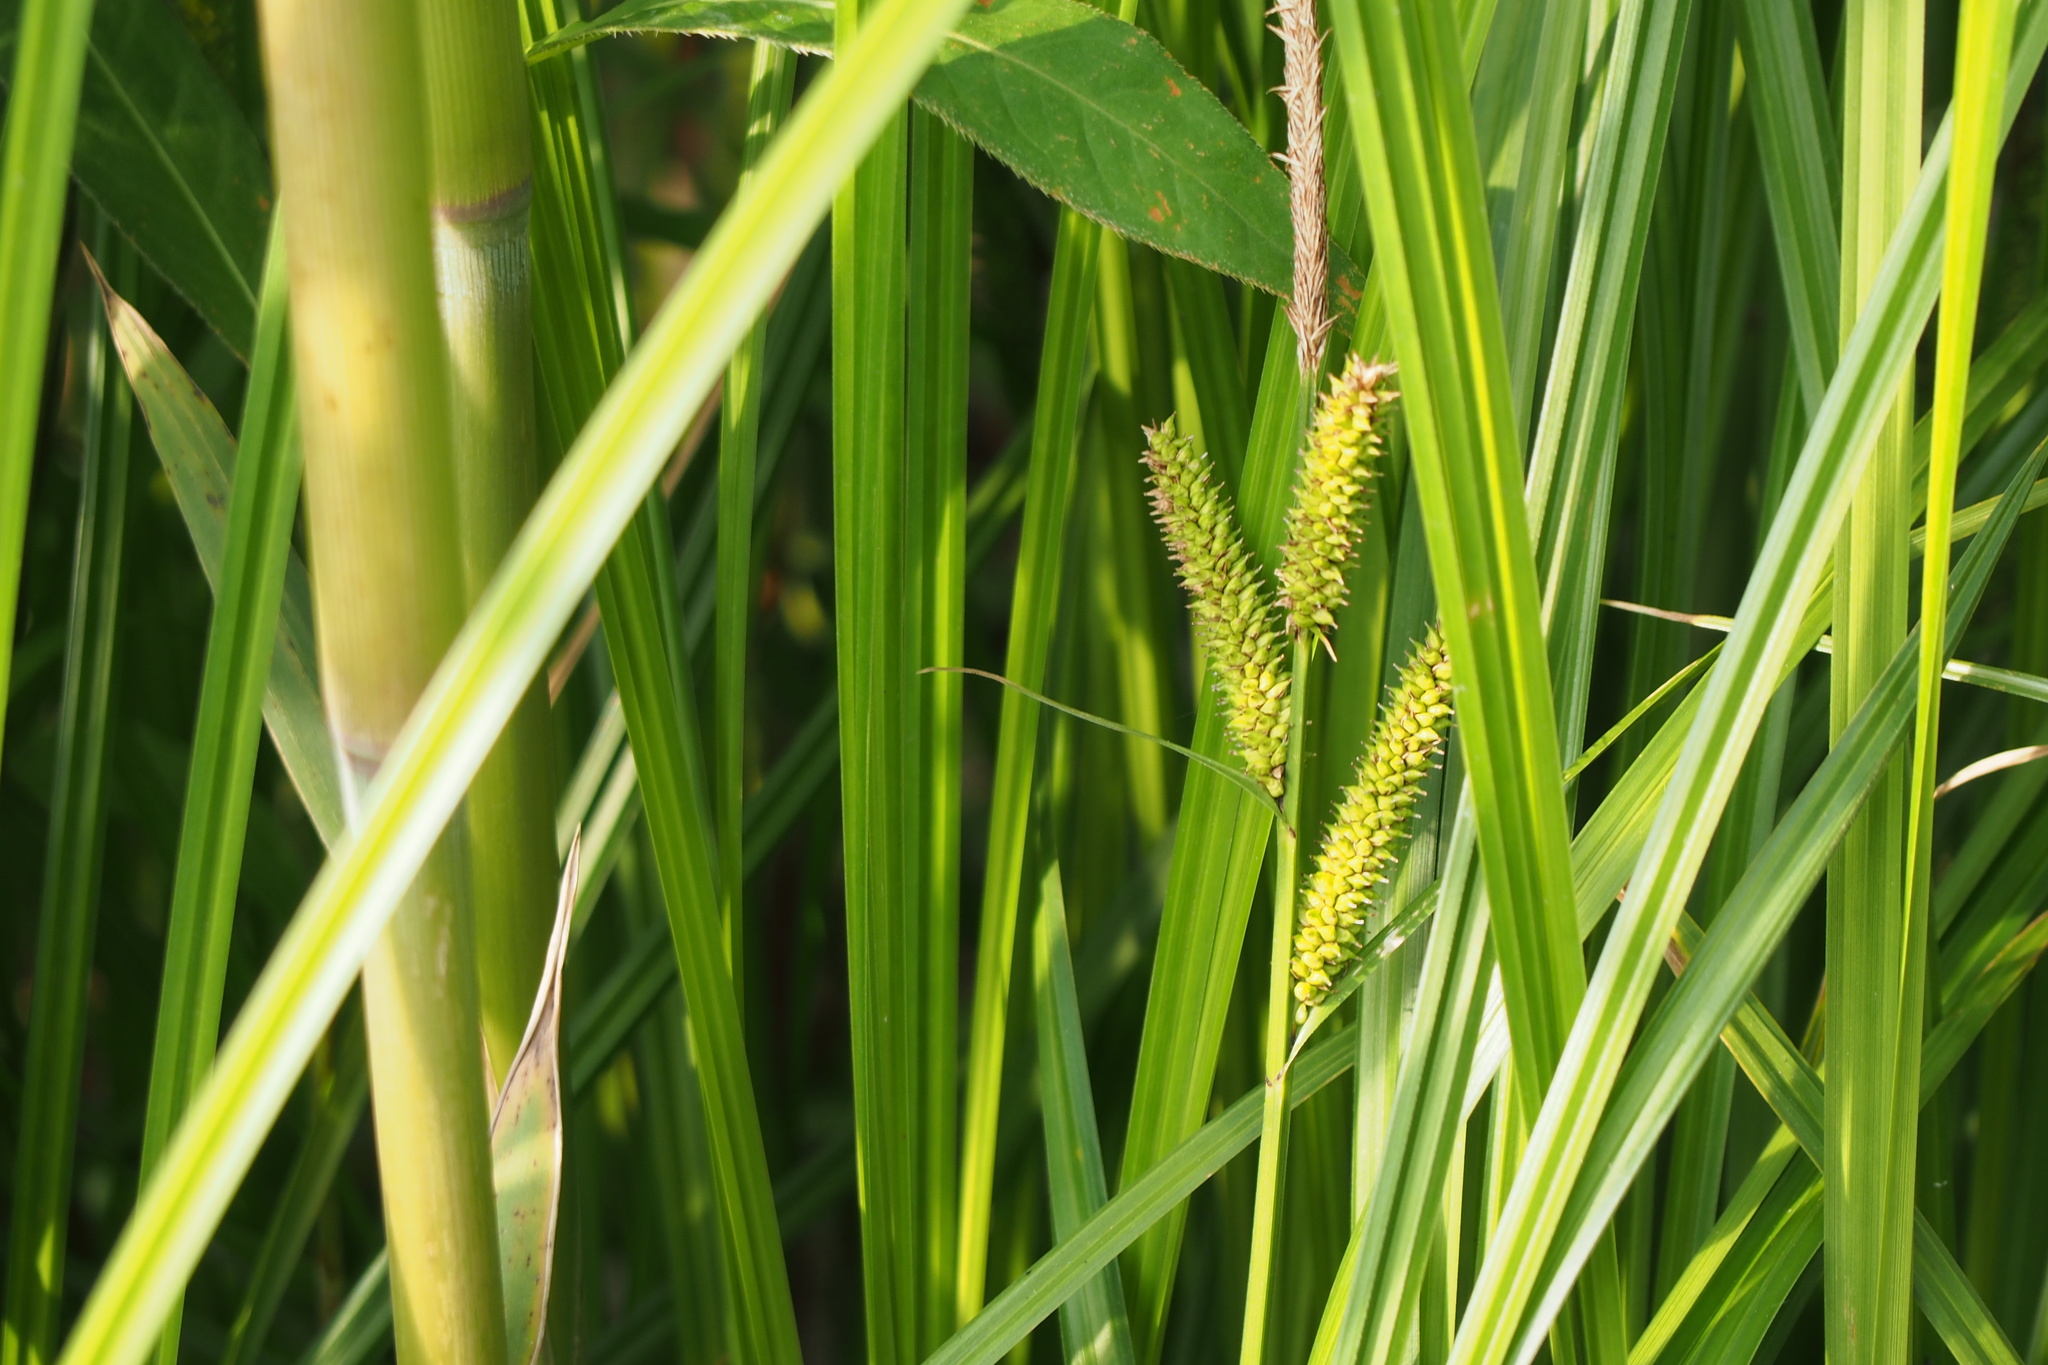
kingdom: Plantae
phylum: Tracheophyta
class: Liliopsida
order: Poales
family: Cyperaceae
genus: Carex
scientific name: Carex dispalata
